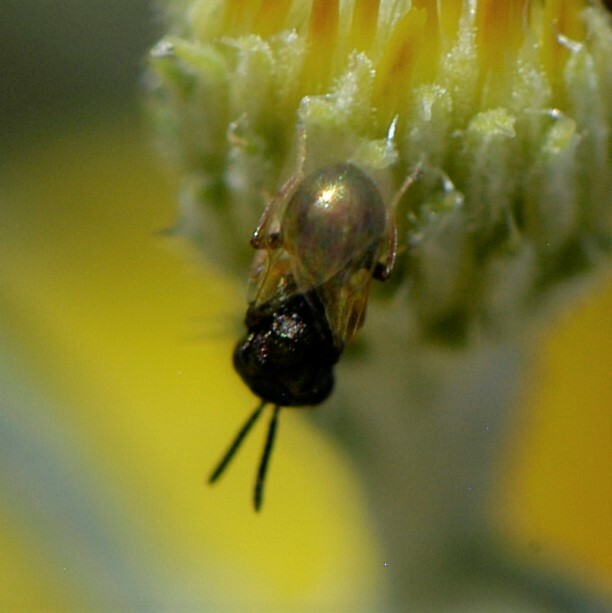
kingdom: Animalia
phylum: Arthropoda
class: Insecta
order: Hymenoptera
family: Eucharitidae
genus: Orasema
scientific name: Orasema
